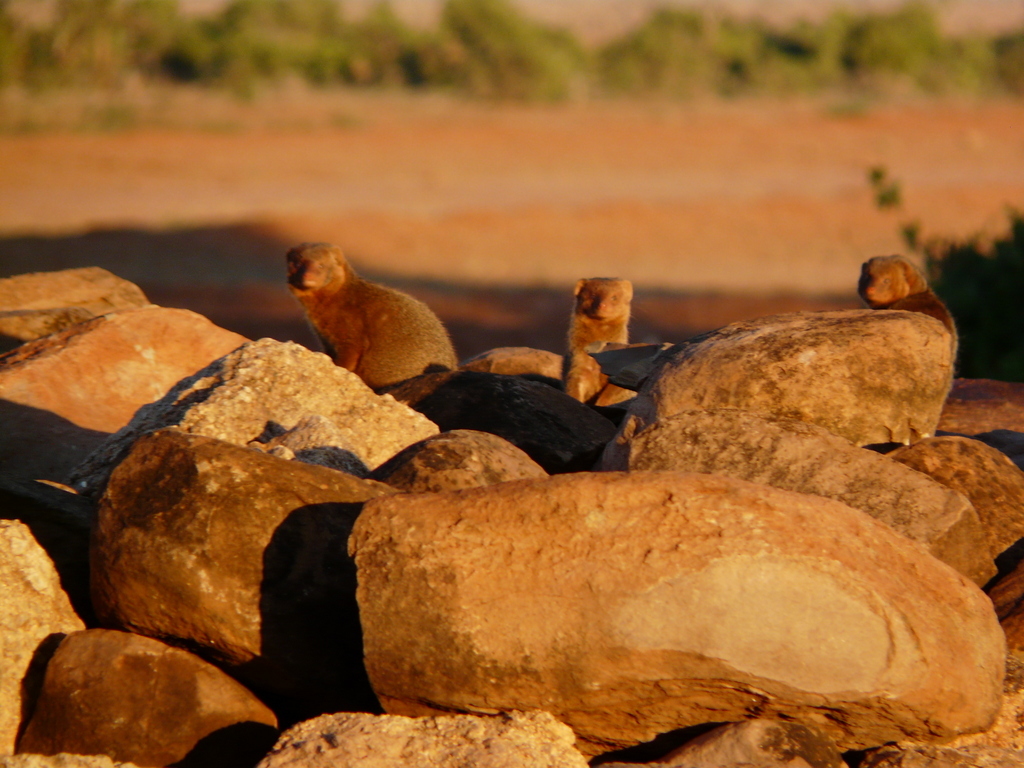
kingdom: Animalia
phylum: Chordata
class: Mammalia
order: Carnivora
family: Herpestidae
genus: Helogale
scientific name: Helogale parvula
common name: Common dwarf mongoose
